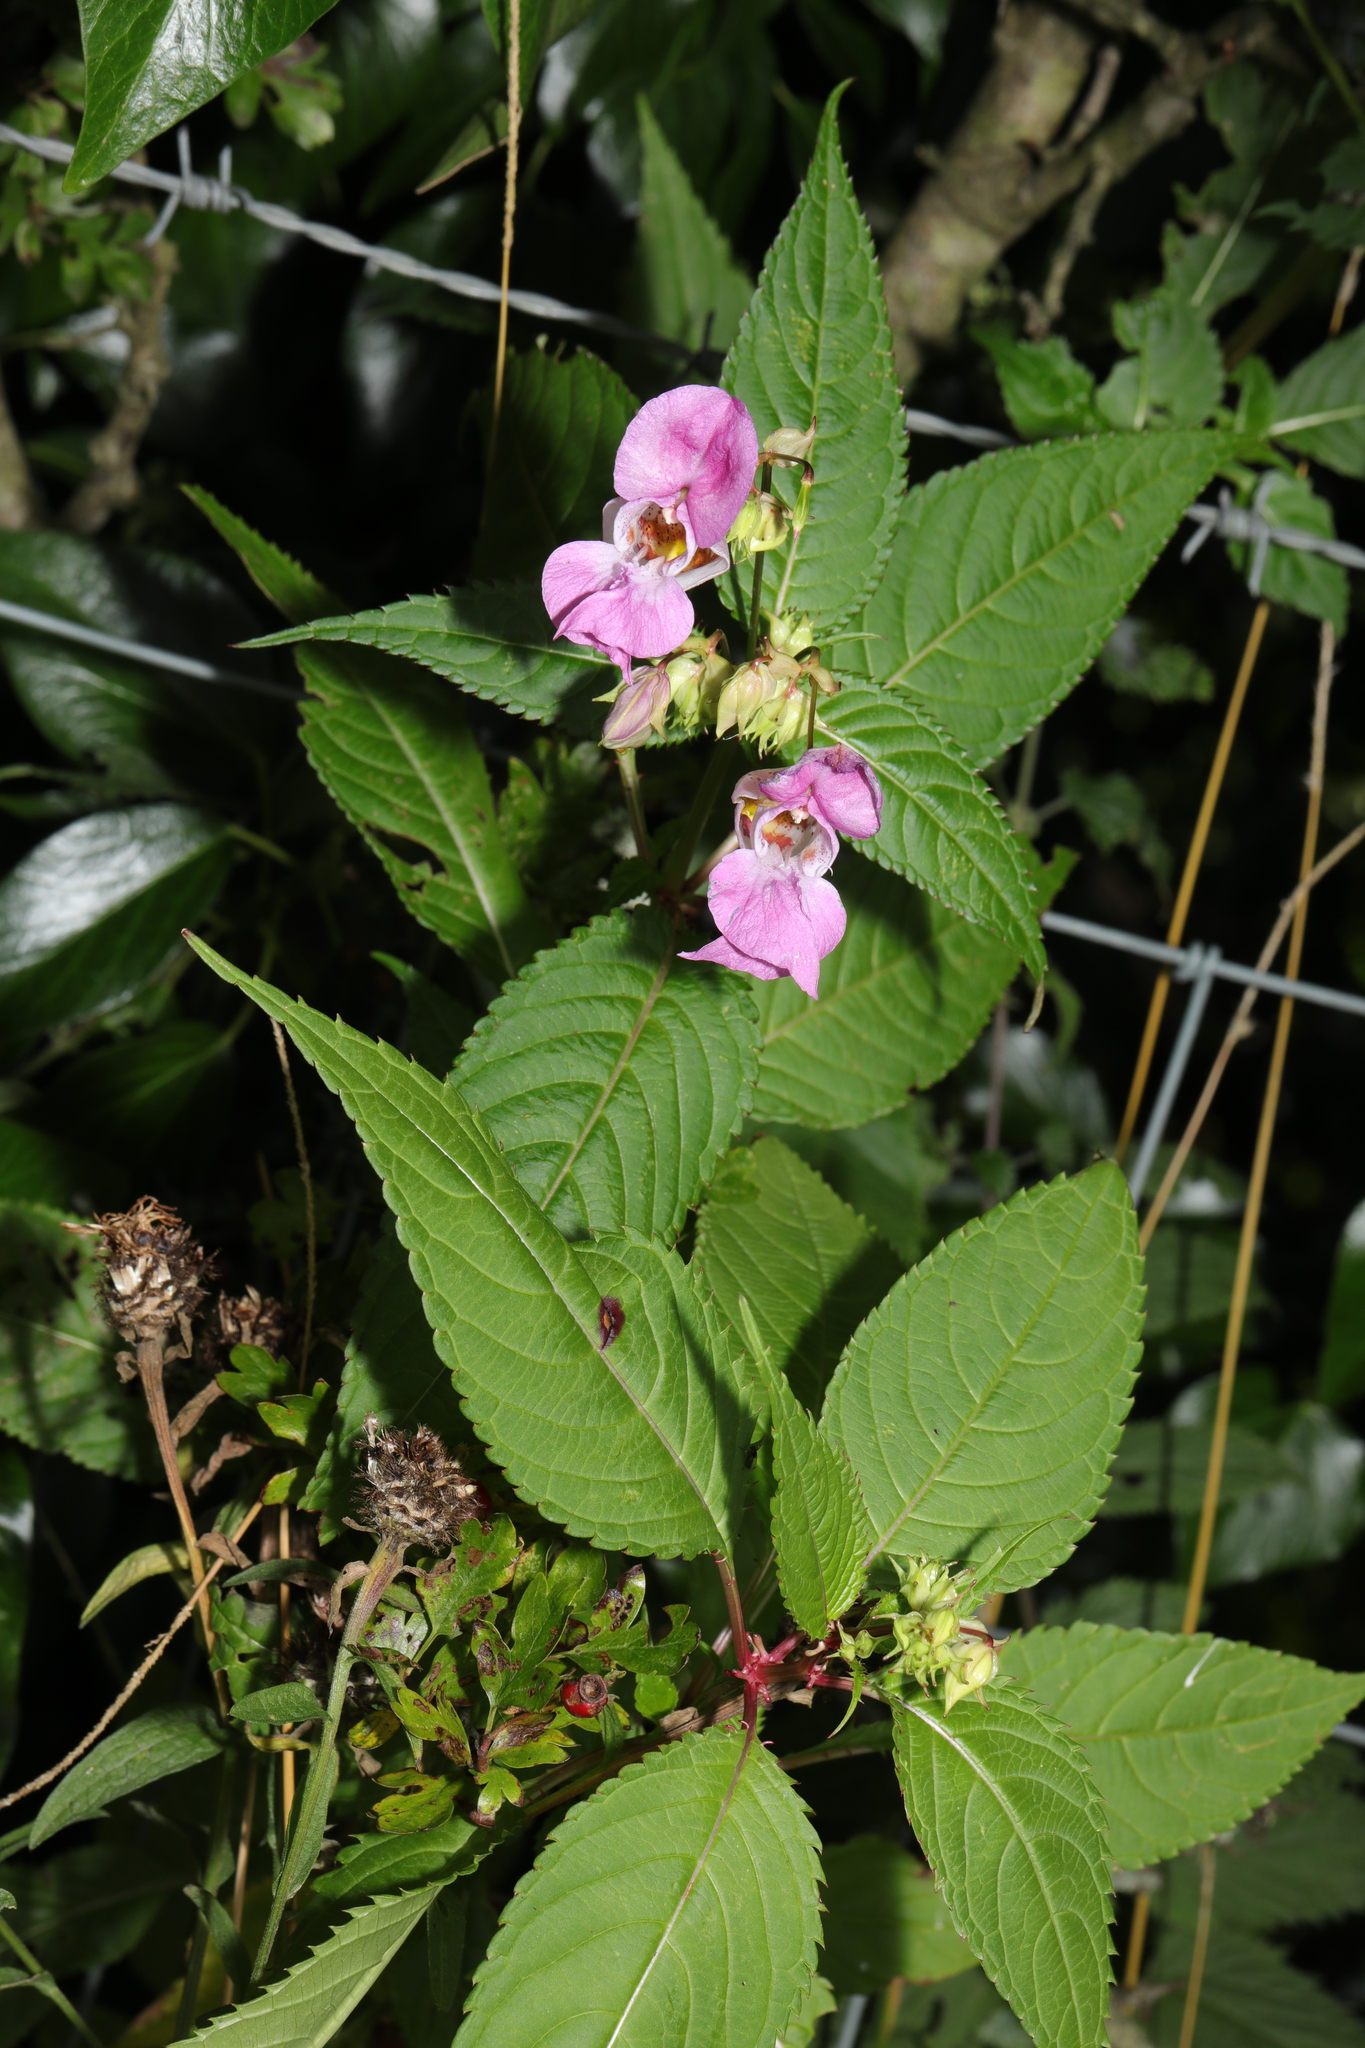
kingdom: Plantae
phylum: Tracheophyta
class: Magnoliopsida
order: Ericales
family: Balsaminaceae
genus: Impatiens
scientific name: Impatiens glandulifera
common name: Himalayan balsam
